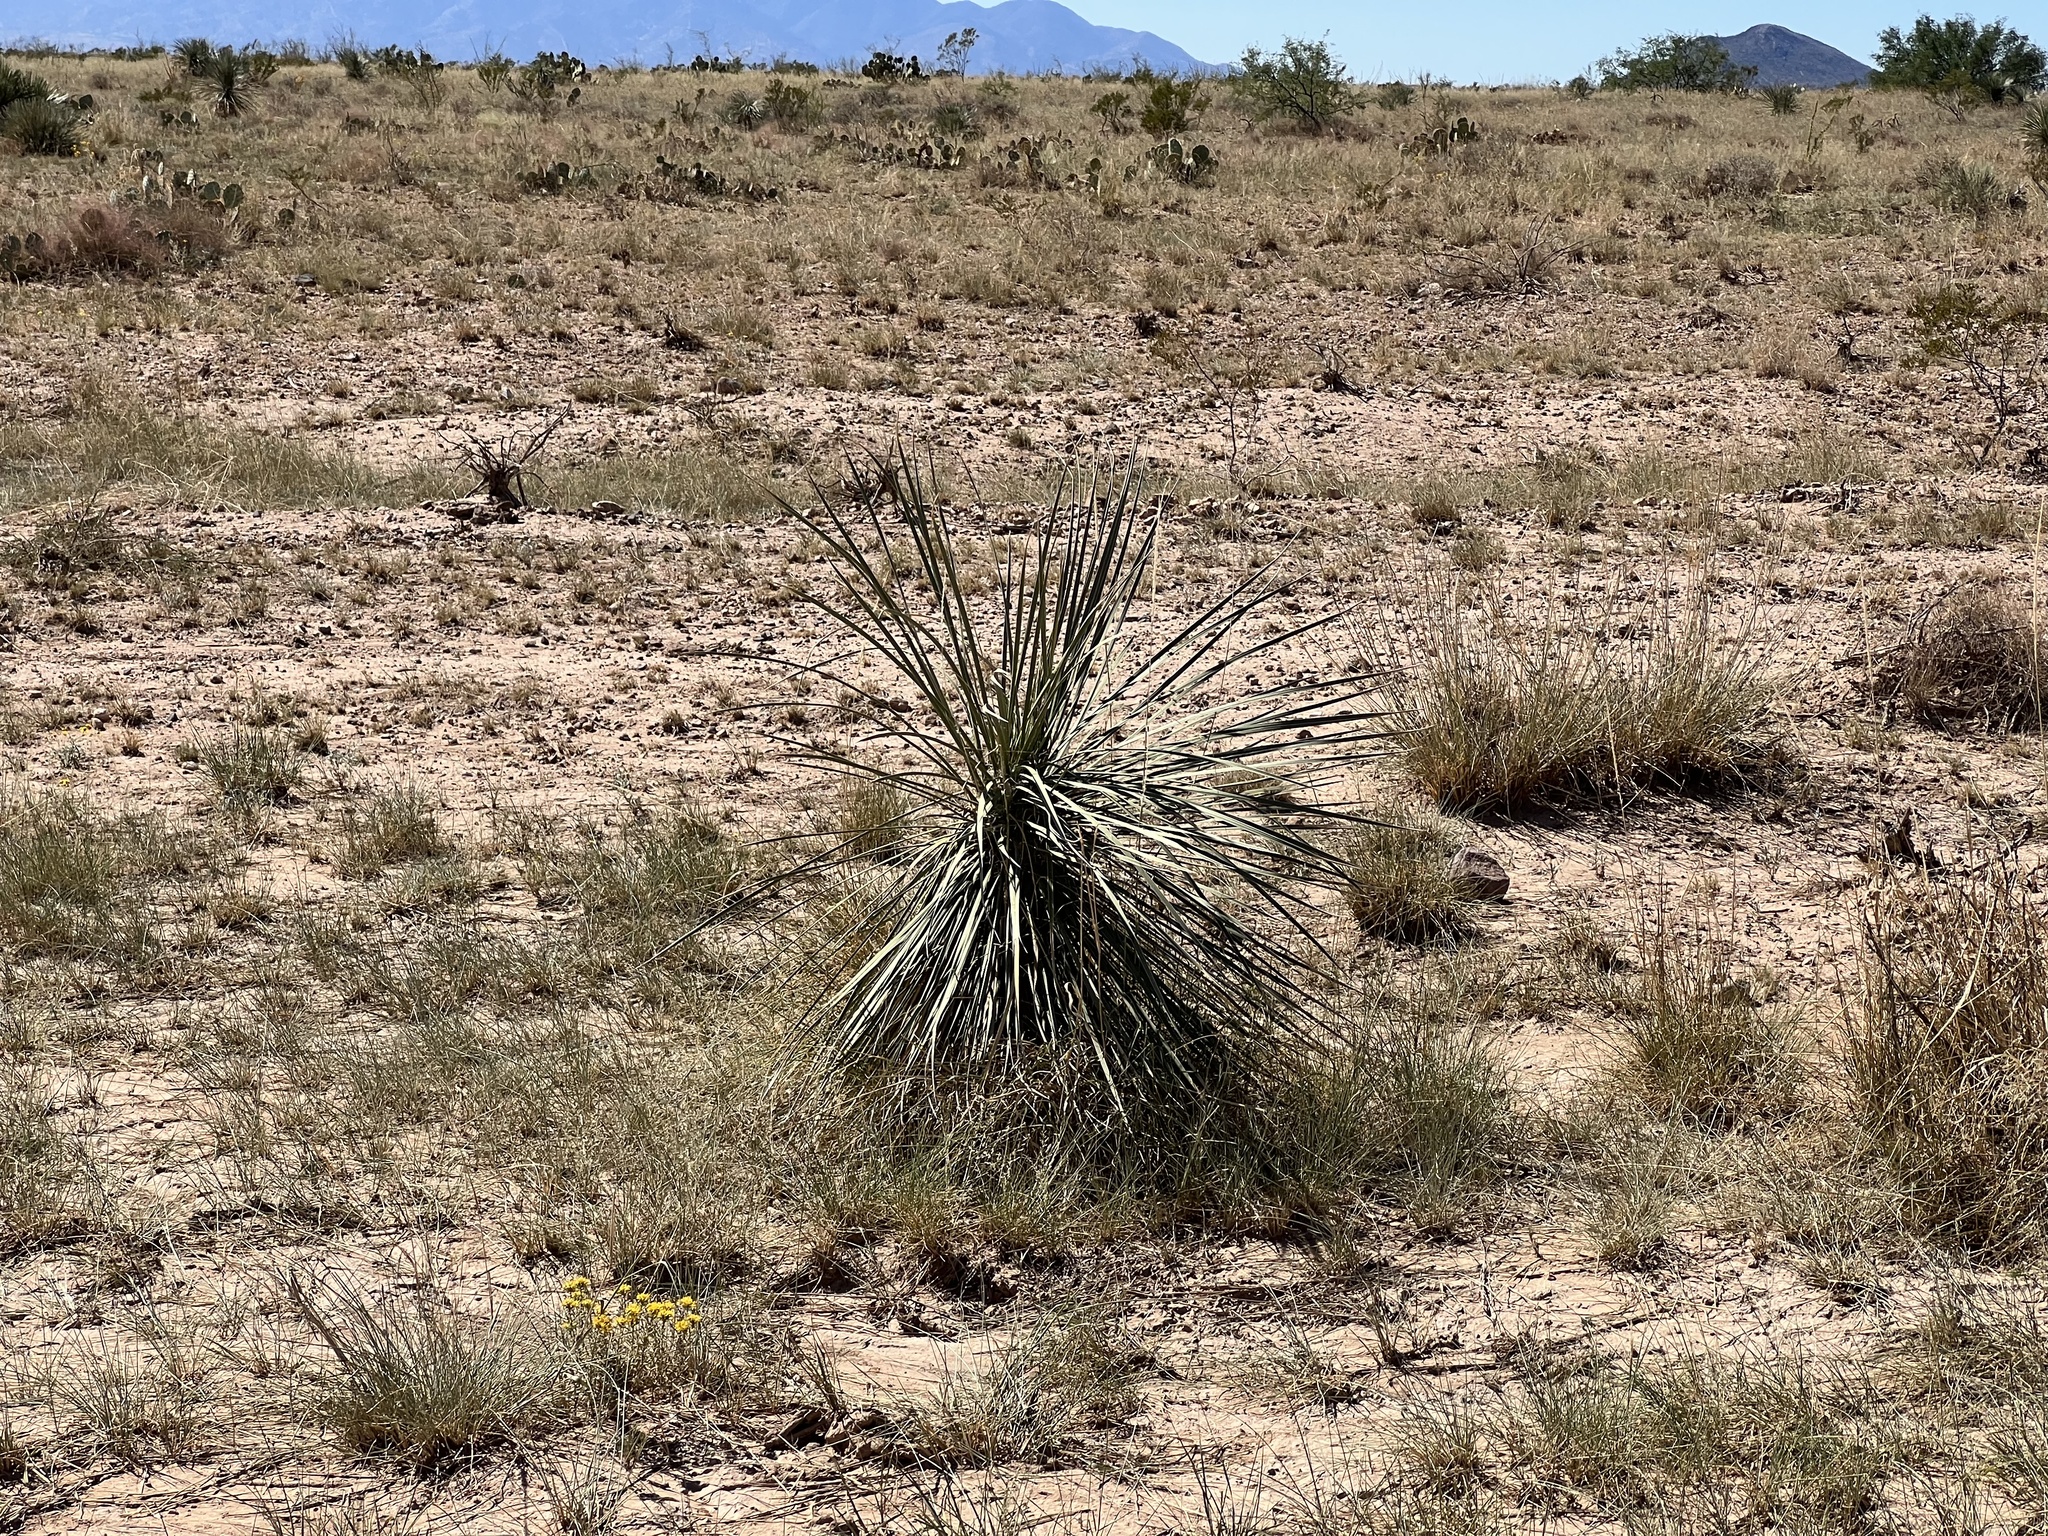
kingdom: Plantae
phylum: Tracheophyta
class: Liliopsida
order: Asparagales
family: Asparagaceae
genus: Yucca
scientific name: Yucca elata
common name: Palmella
